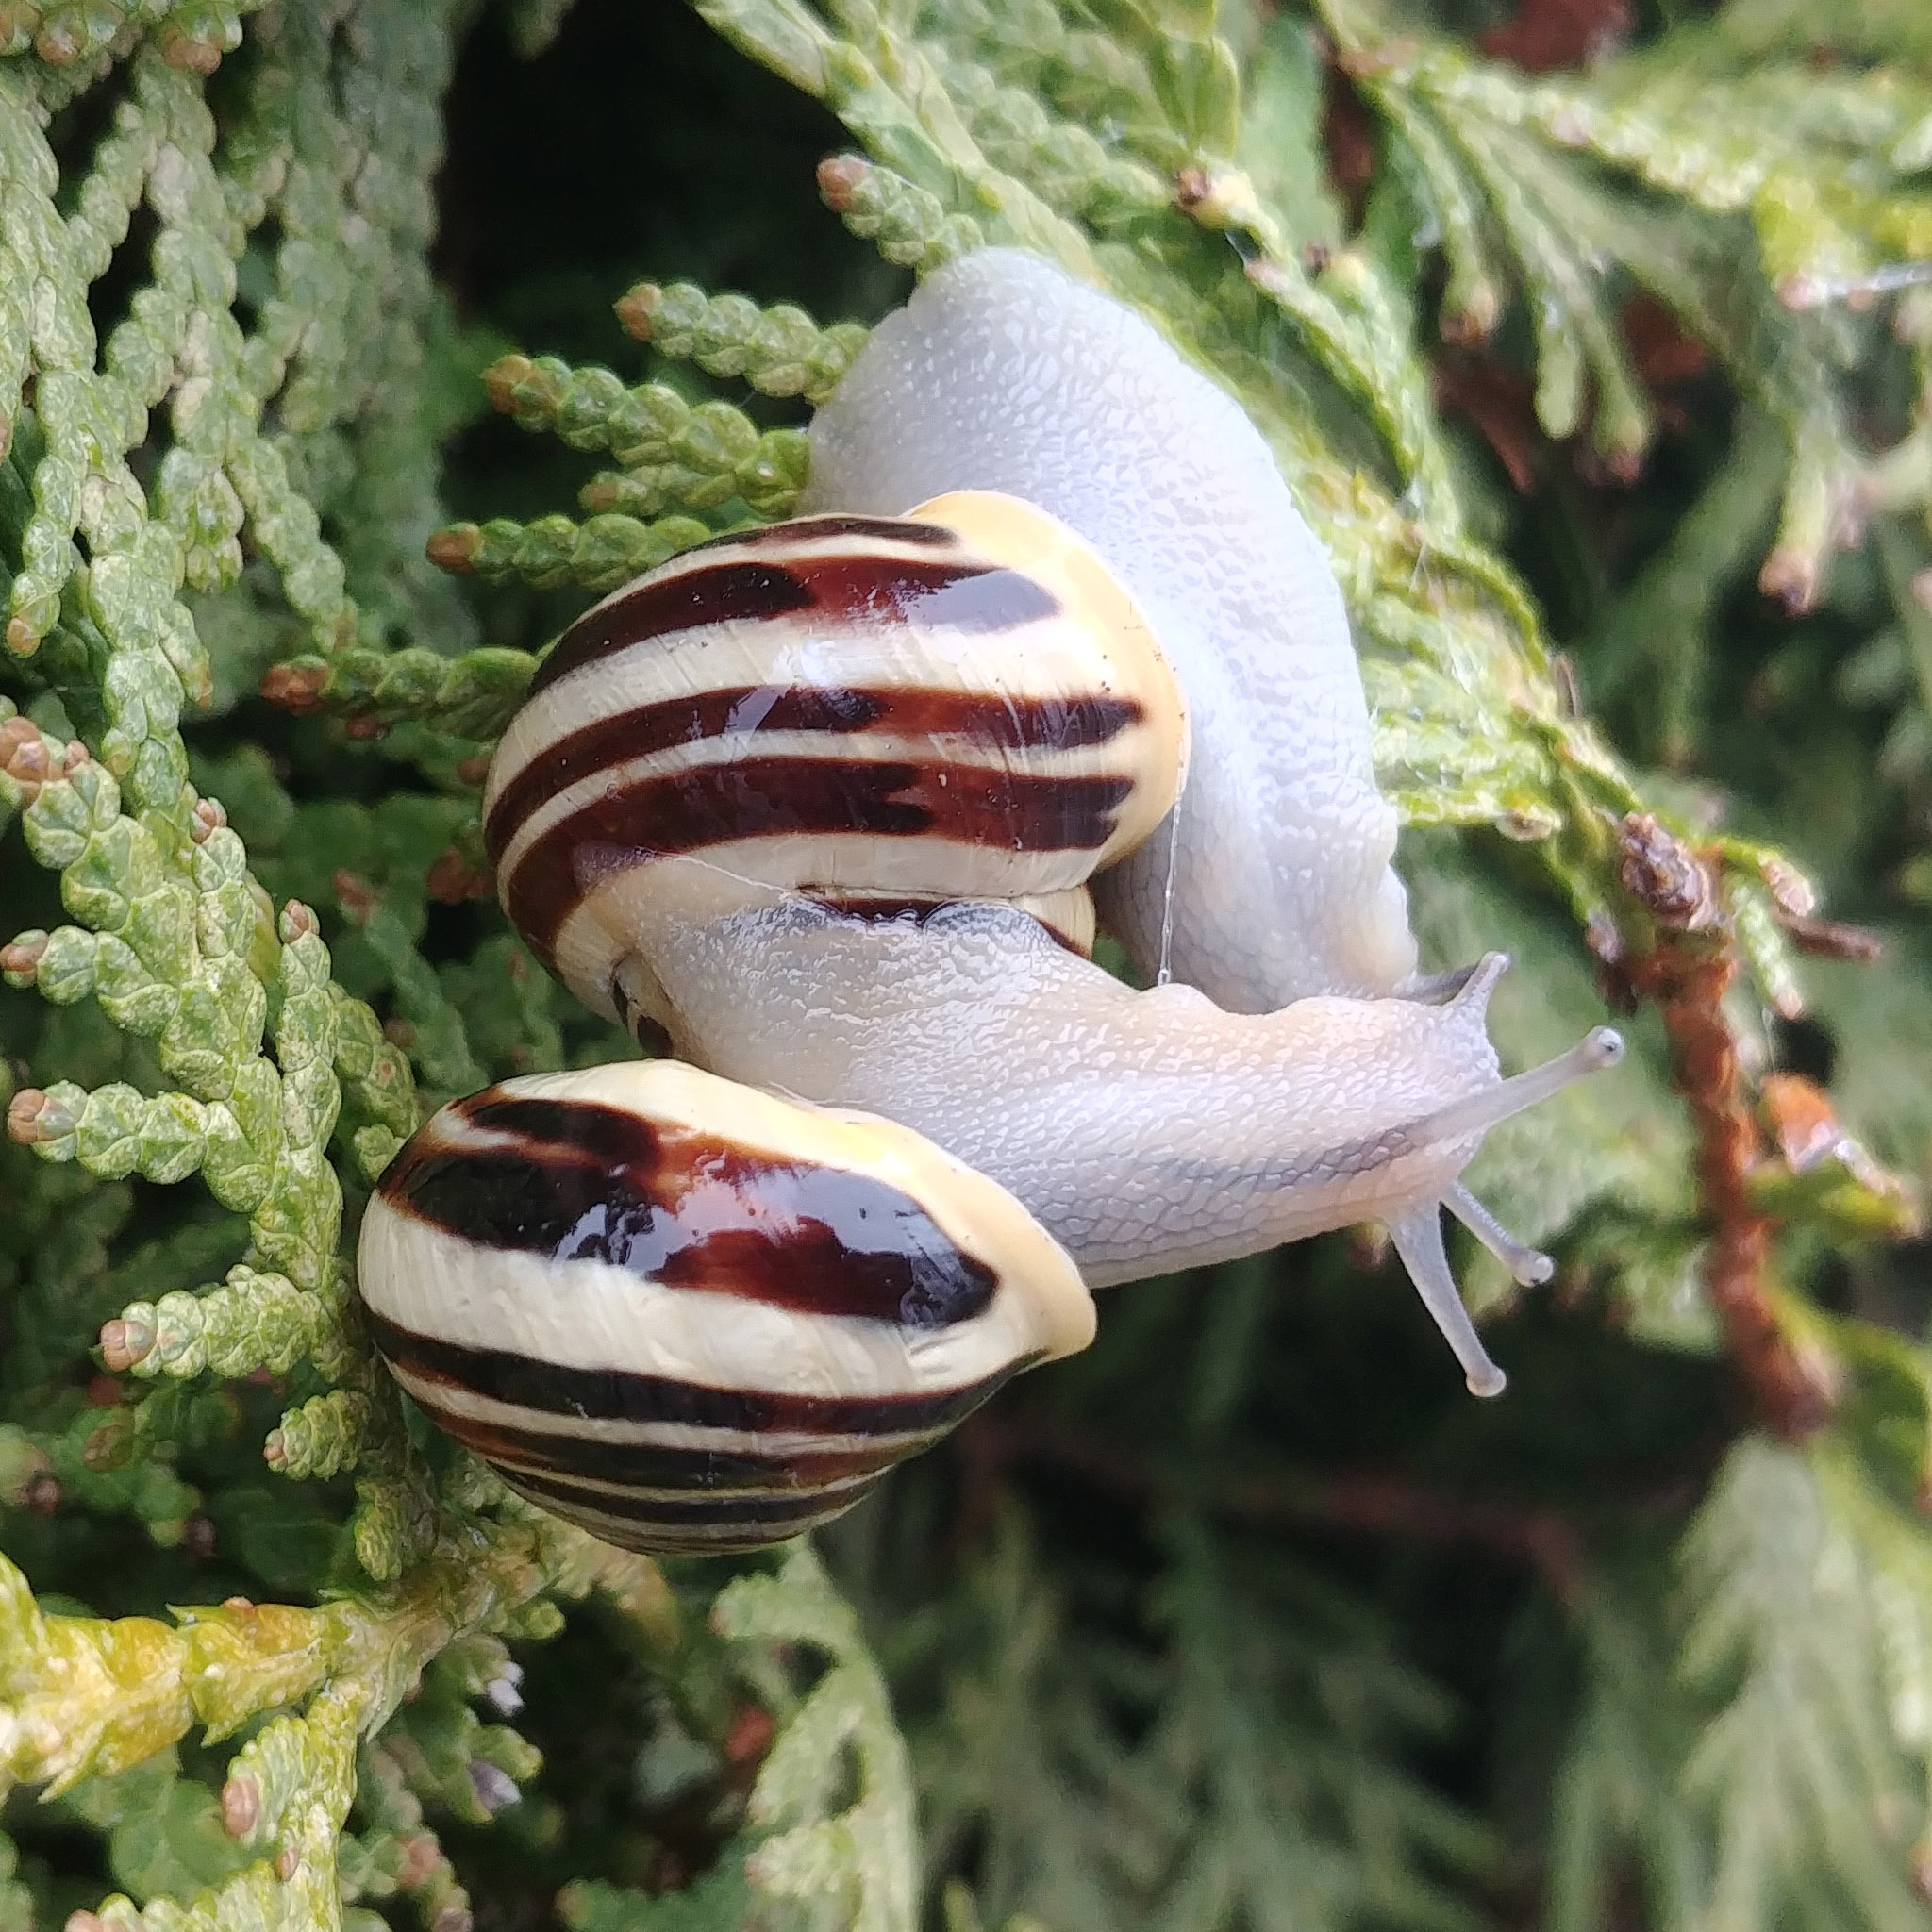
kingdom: Animalia
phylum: Mollusca
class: Gastropoda
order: Stylommatophora
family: Helicidae
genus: Cepaea
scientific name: Cepaea hortensis
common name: White-lip gardensnail
